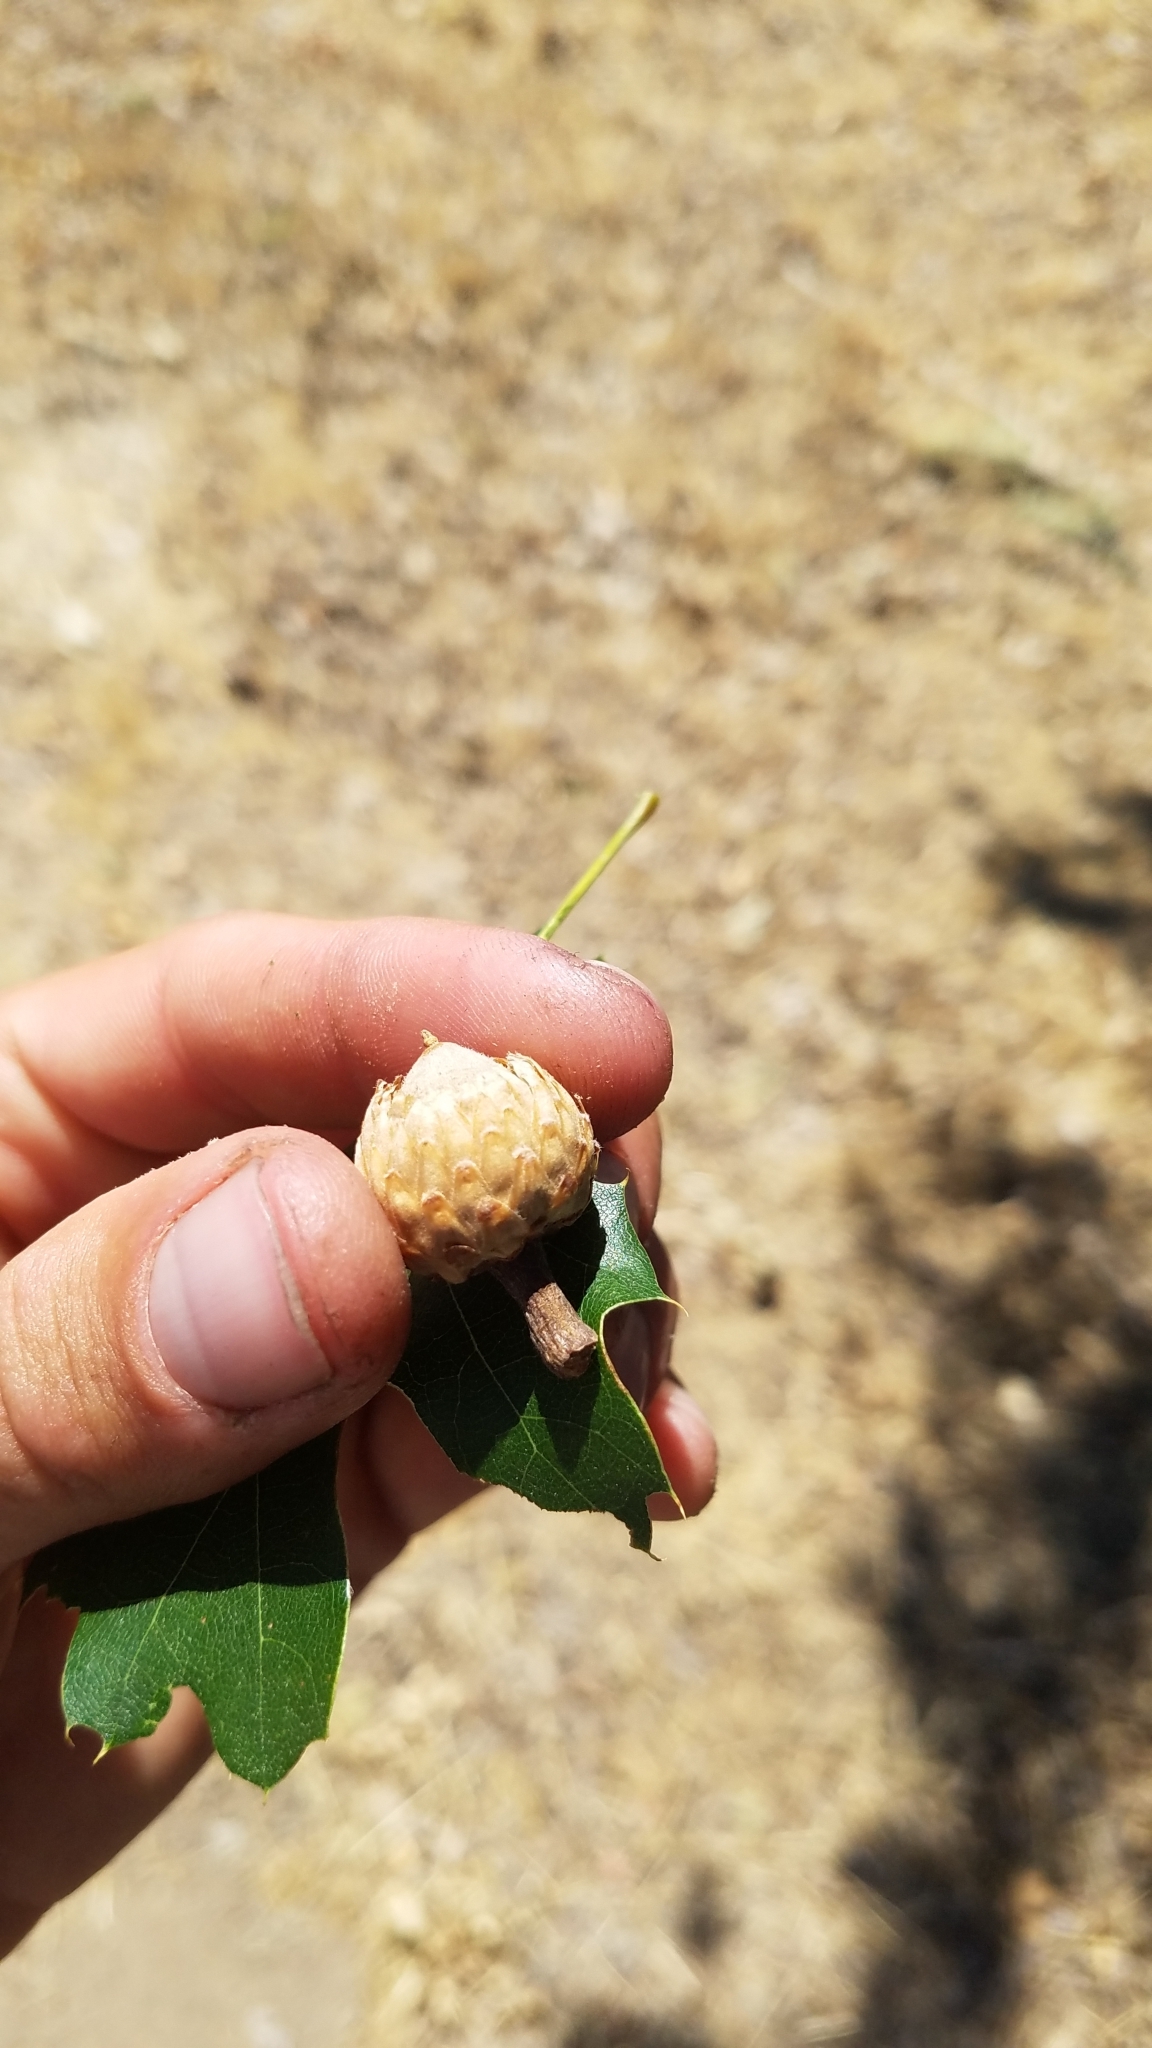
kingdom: Plantae
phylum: Tracheophyta
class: Magnoliopsida
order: Fagales
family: Fagaceae
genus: Quercus
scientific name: Quercus kelloggii
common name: California black oak
